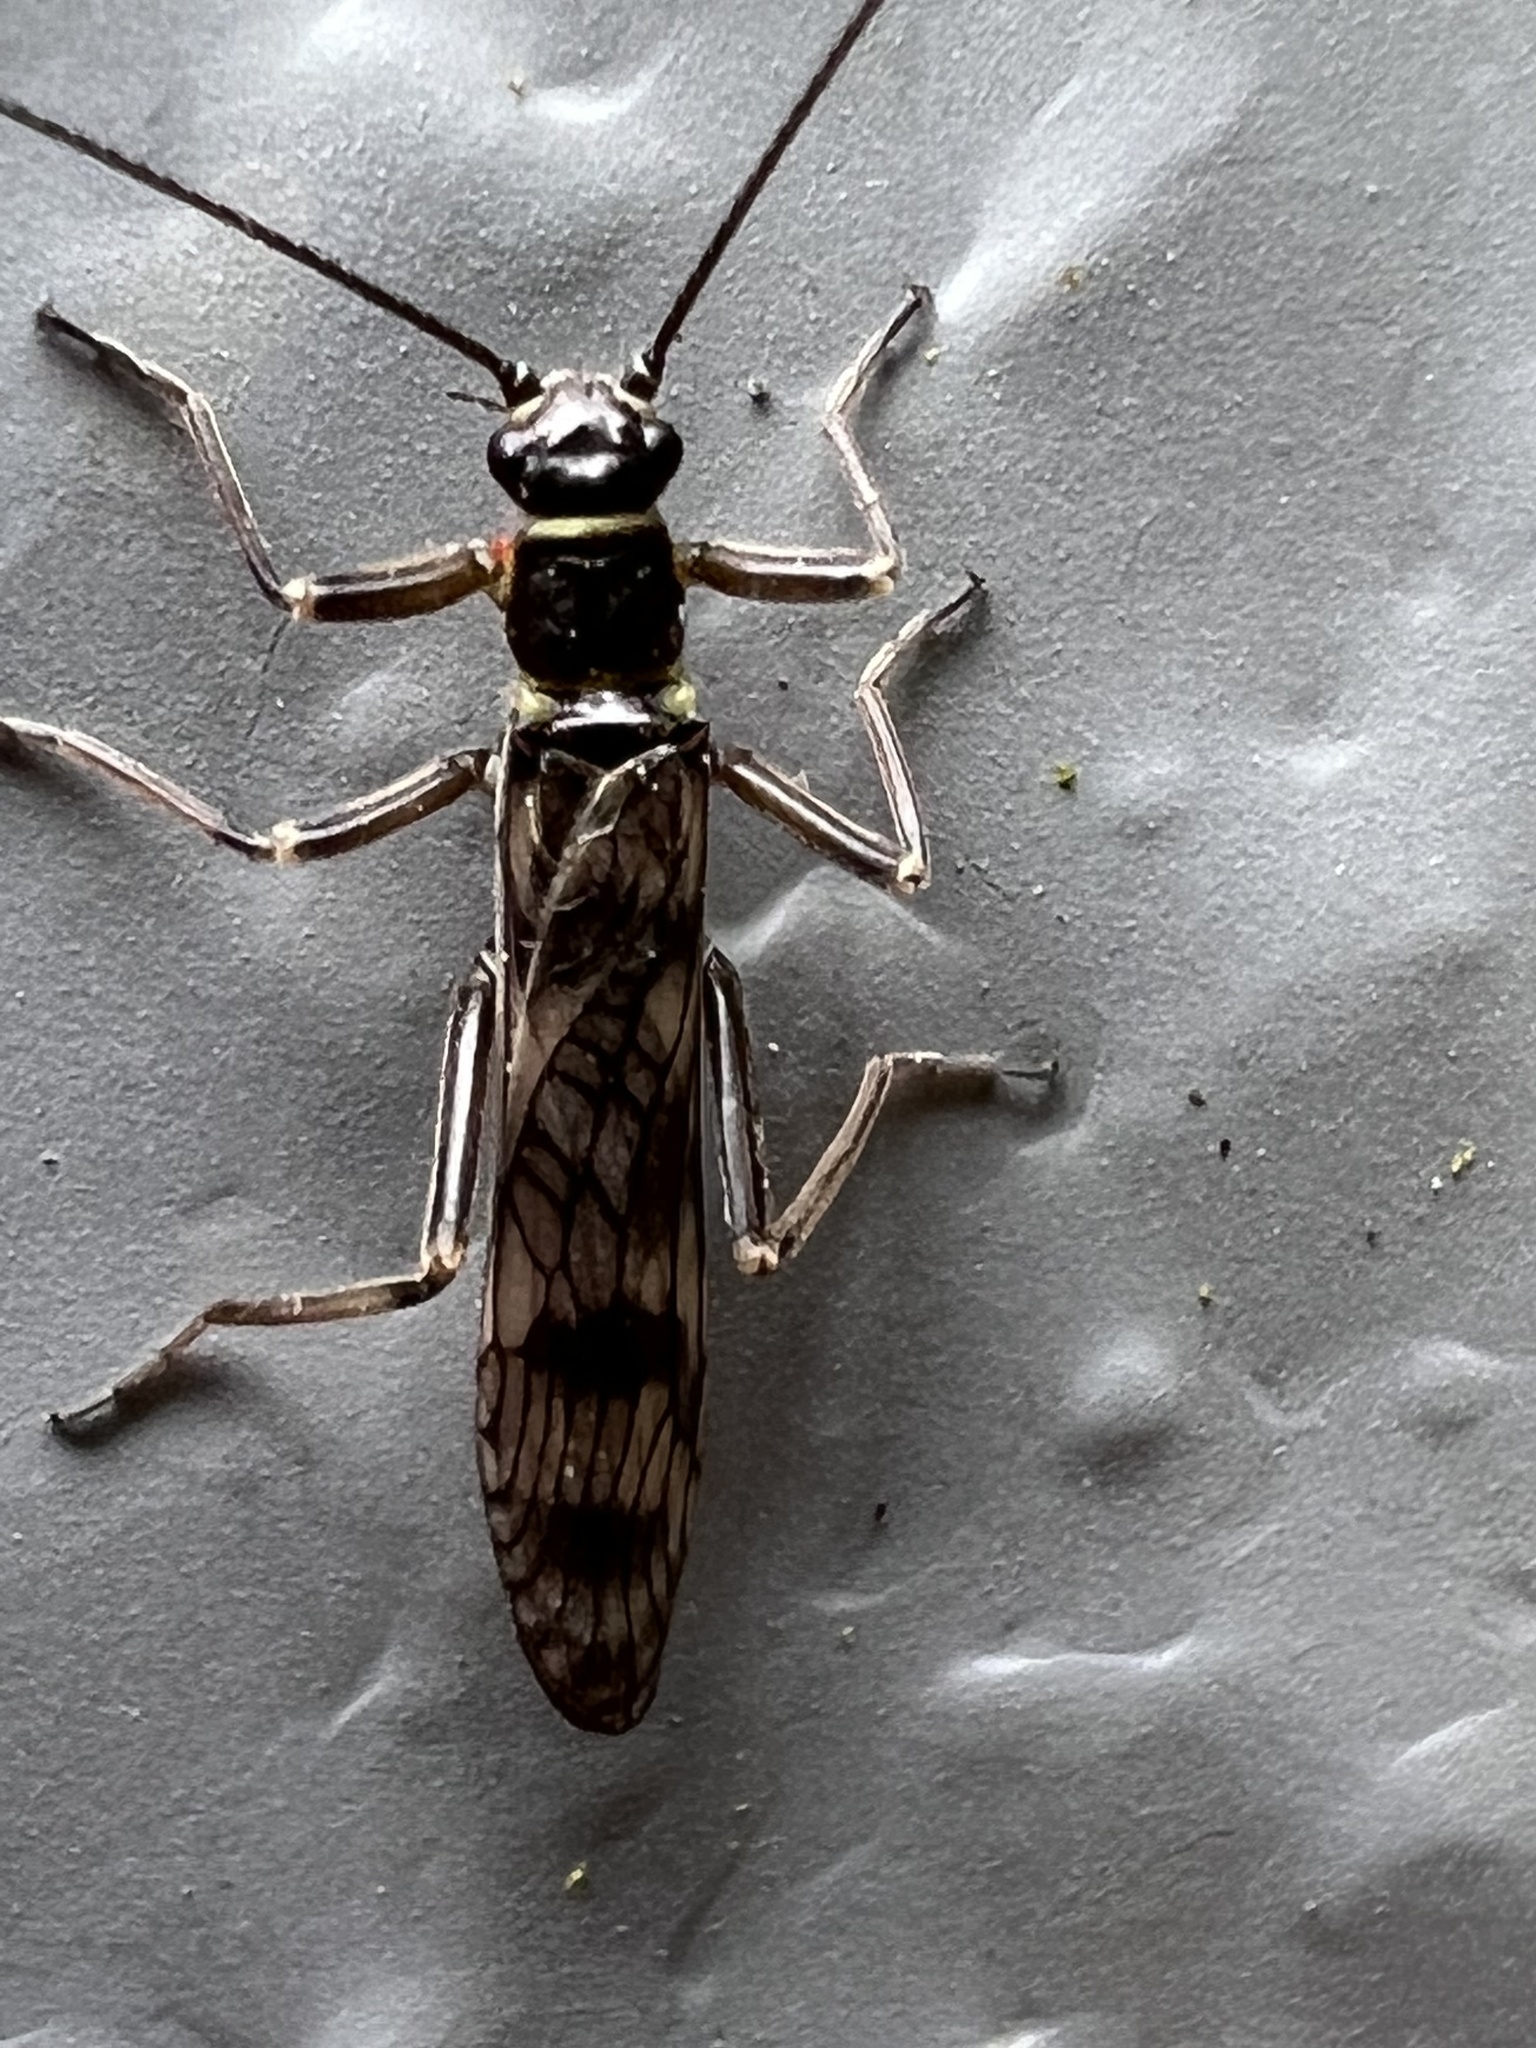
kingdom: Animalia
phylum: Arthropoda
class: Insecta
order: Plecoptera
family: Taeniopterygidae
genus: Doddsia
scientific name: Doddsia occidentalis
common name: Western willowfly
